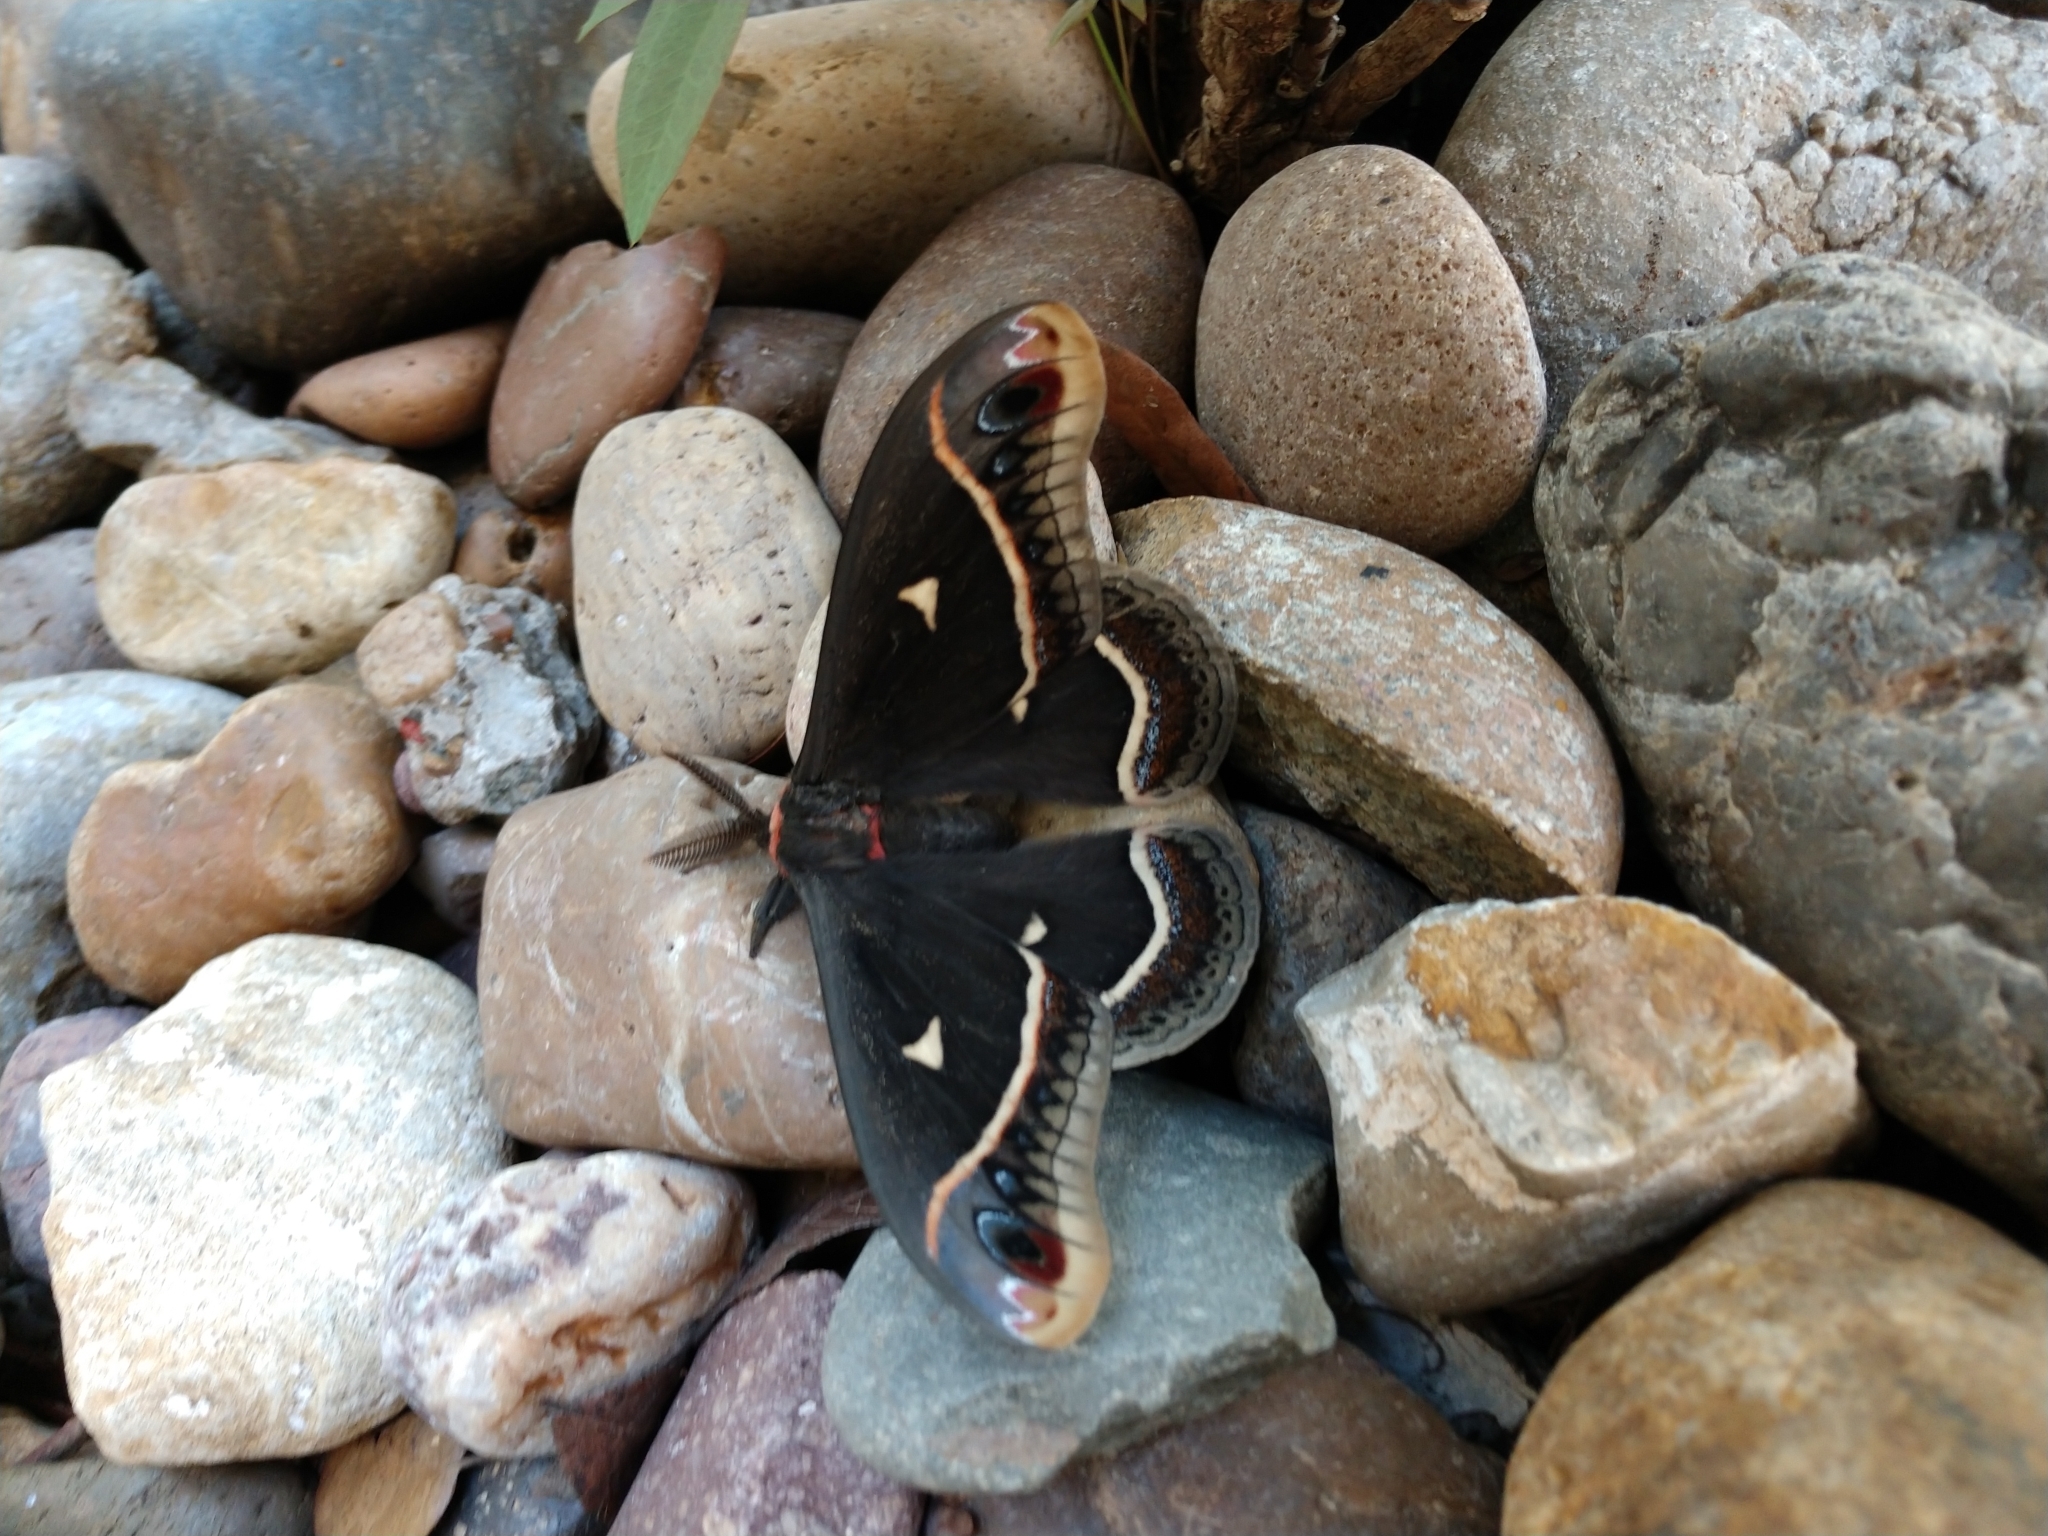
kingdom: Animalia
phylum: Arthropoda
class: Insecta
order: Lepidoptera
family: Saturniidae
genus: Eupackardia
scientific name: Eupackardia calleta
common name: Calleta silkmoth
